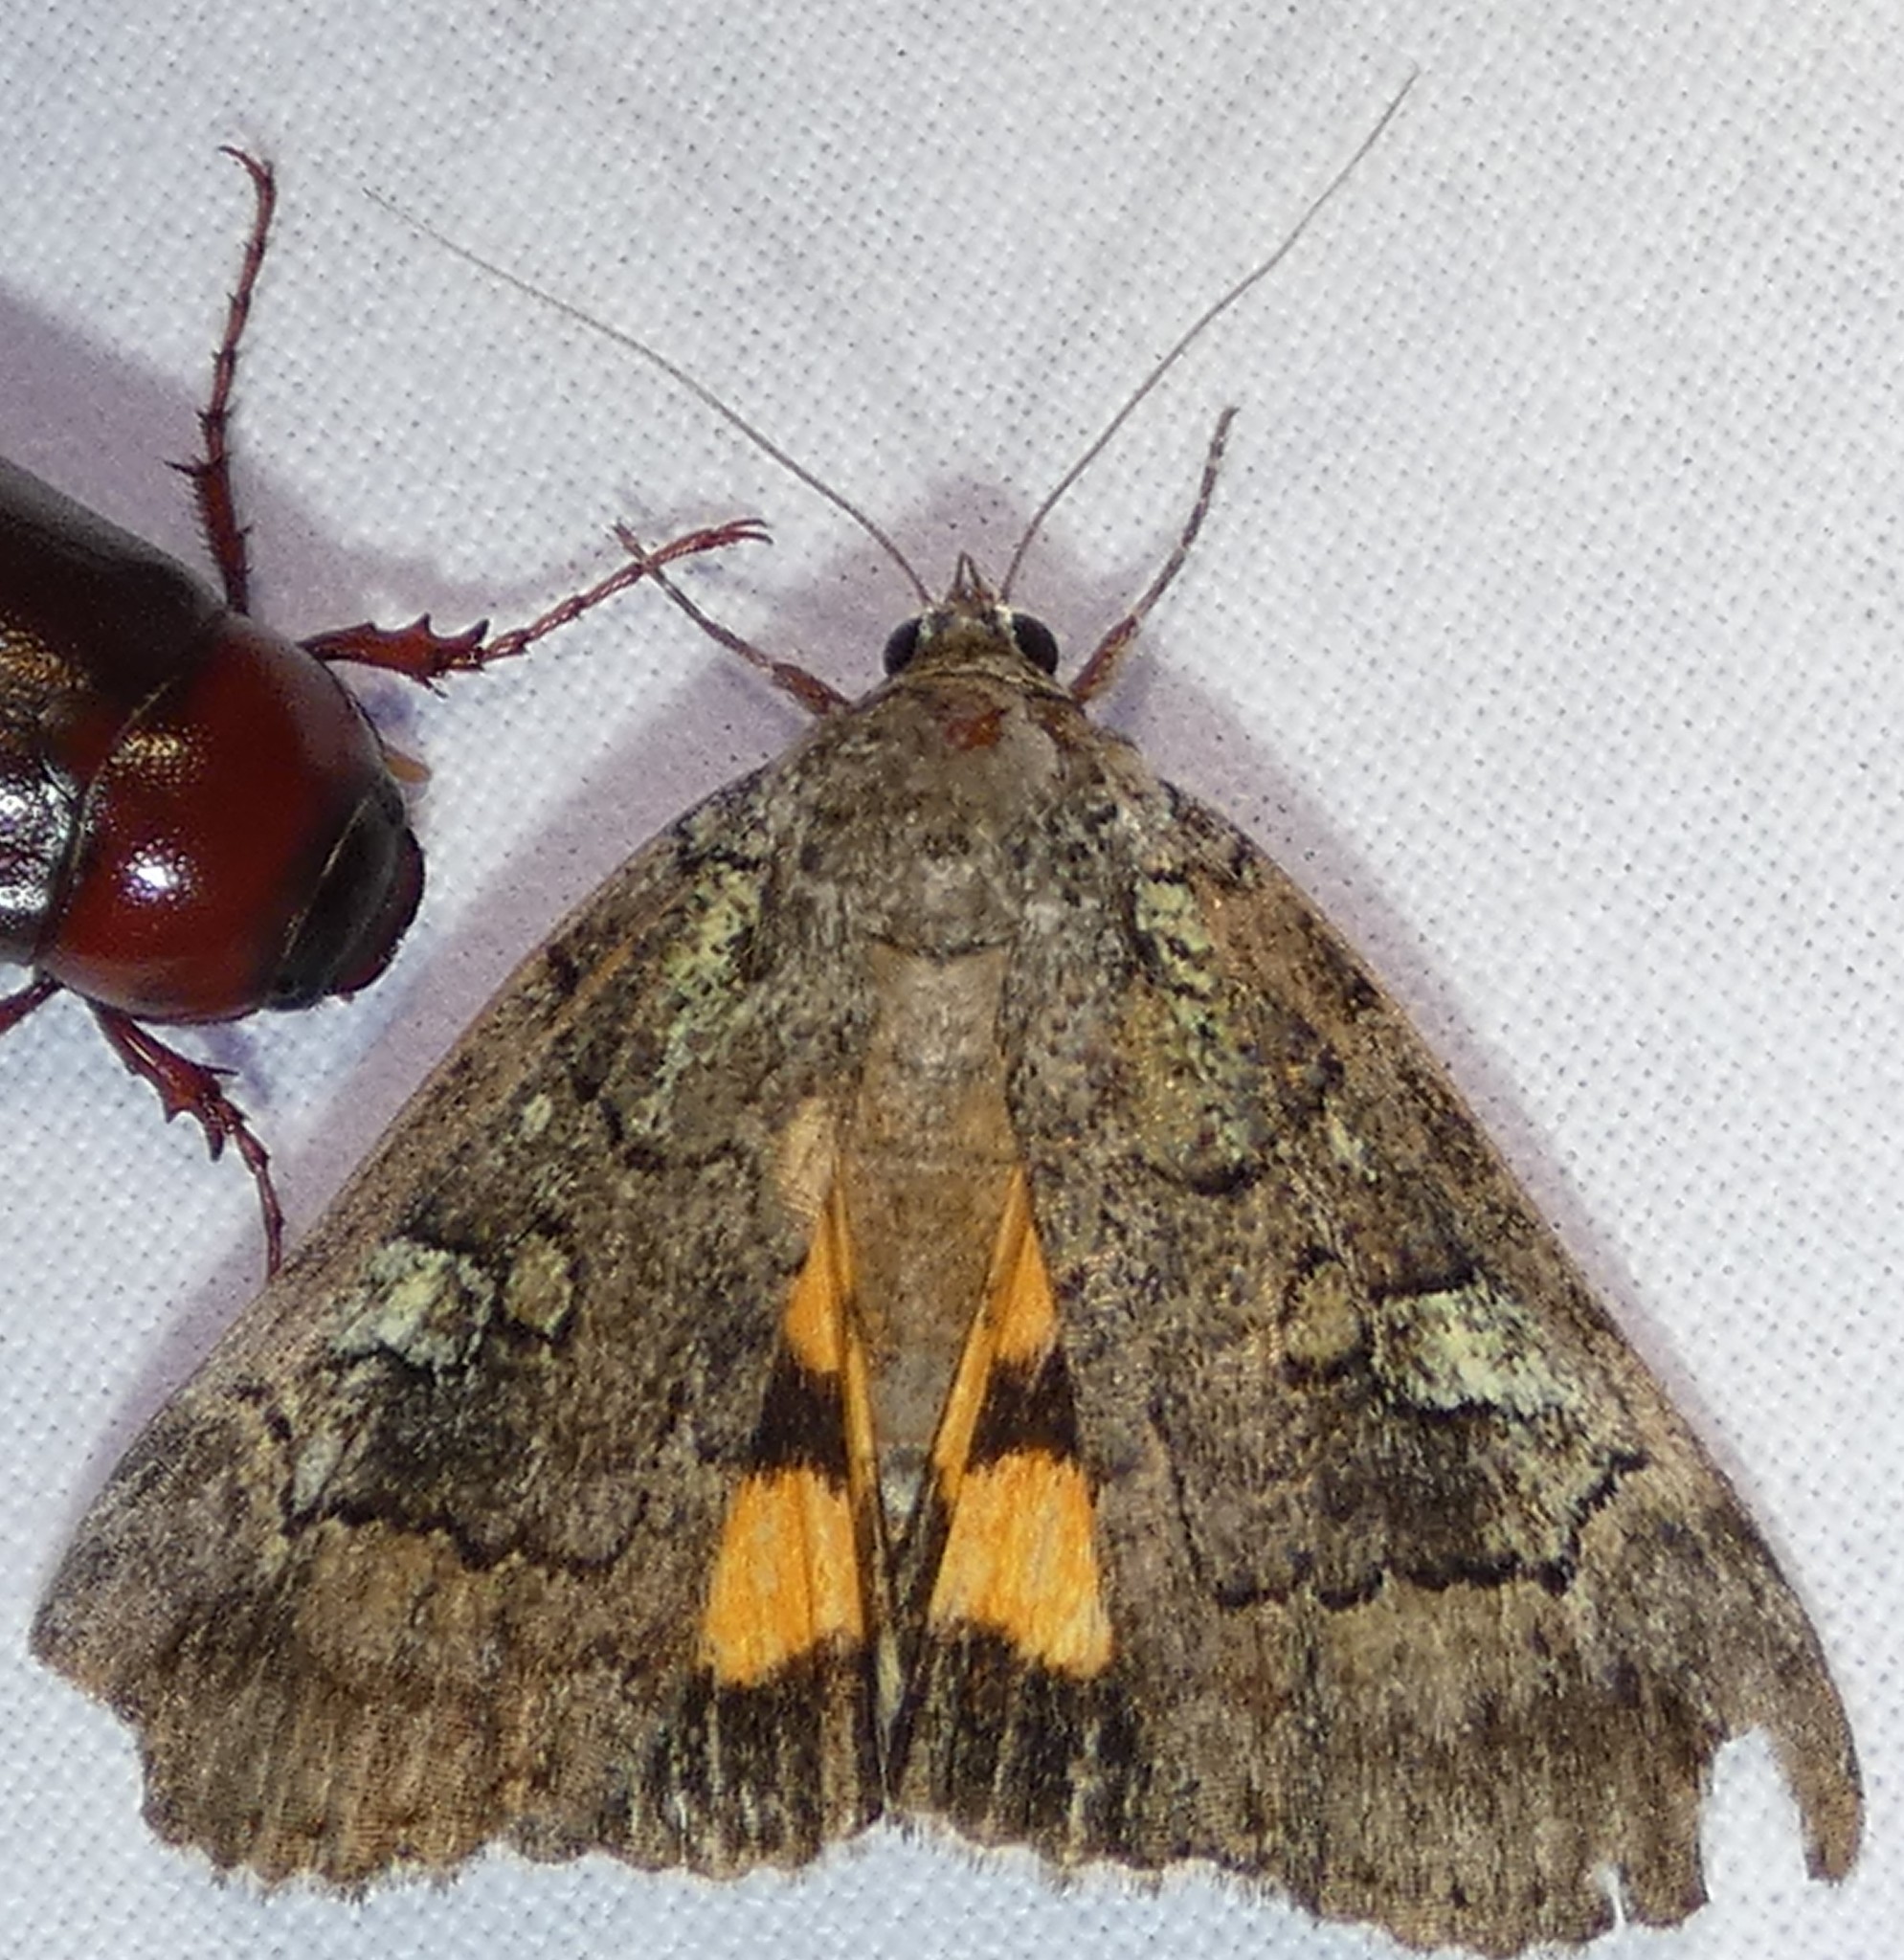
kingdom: Animalia
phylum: Arthropoda
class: Insecta
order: Lepidoptera
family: Erebidae
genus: Catocala
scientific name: Catocala similis
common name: Similar underwing
